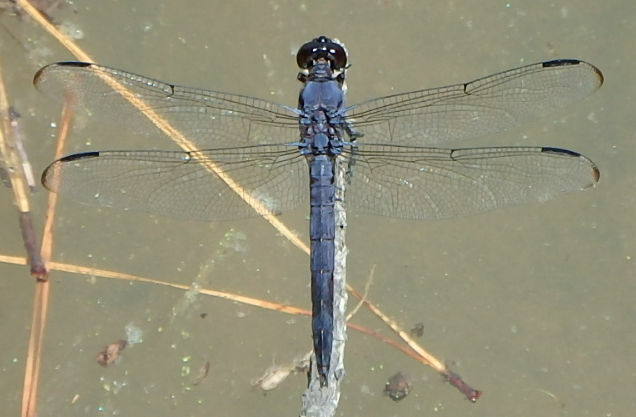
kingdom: Animalia
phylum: Arthropoda
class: Insecta
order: Odonata
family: Libellulidae
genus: Libellula
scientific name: Libellula incesta
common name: Slaty skimmer
